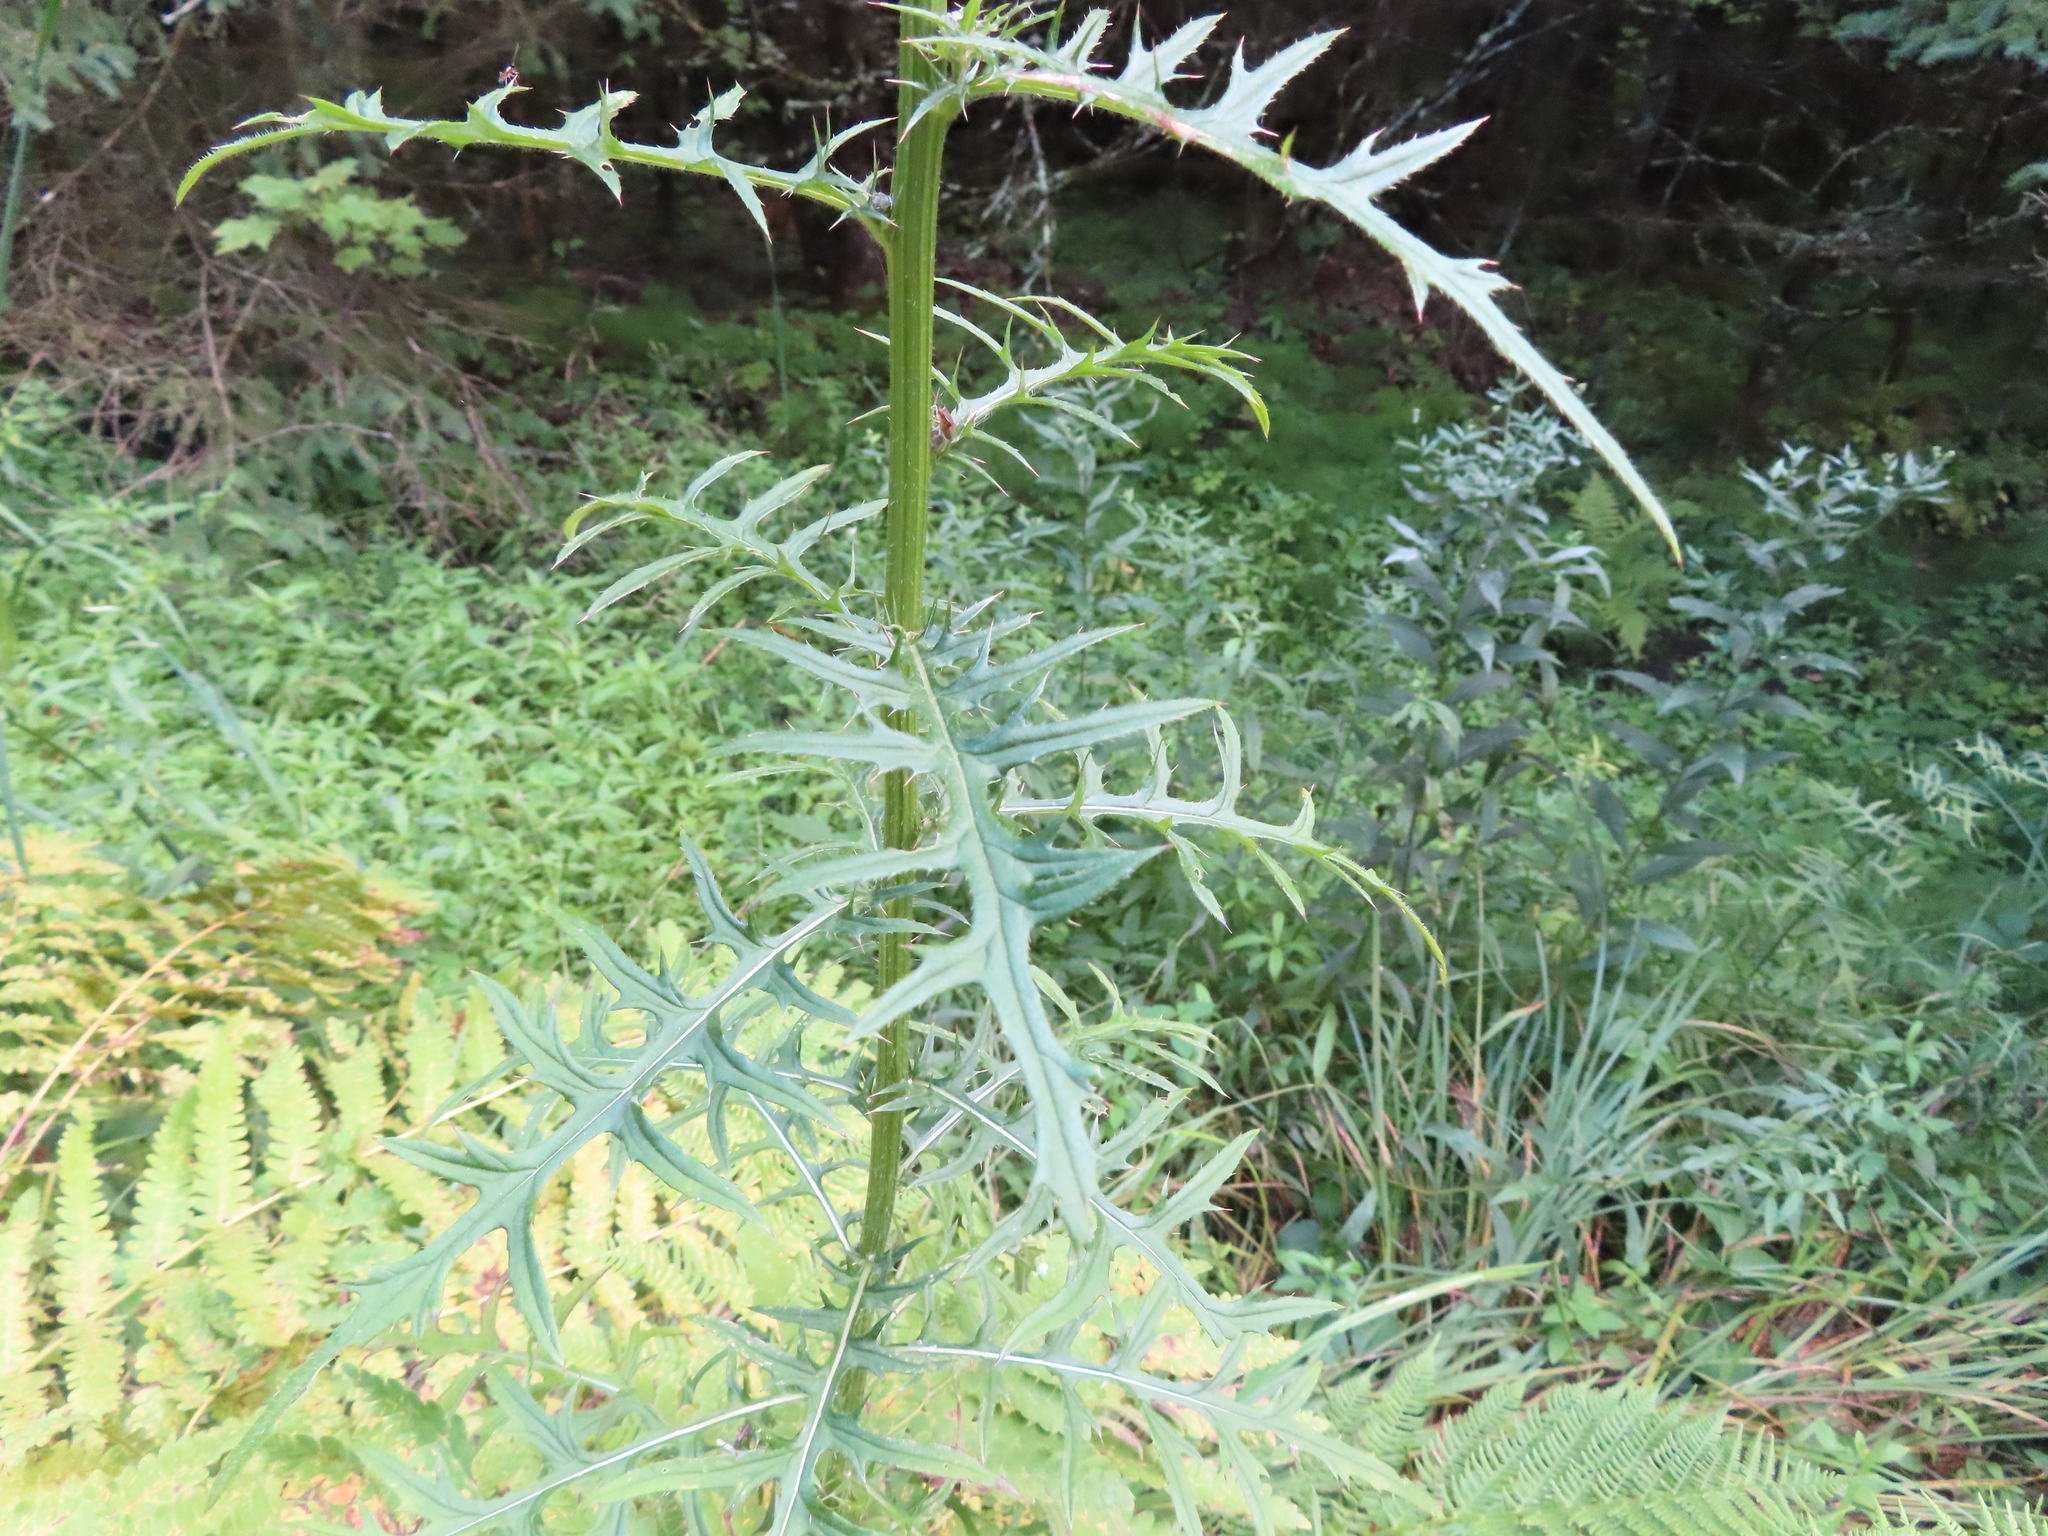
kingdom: Plantae
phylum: Tracheophyta
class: Magnoliopsida
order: Asterales
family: Asteraceae
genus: Cirsium
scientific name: Cirsium muticum
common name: Dunce-nettle
